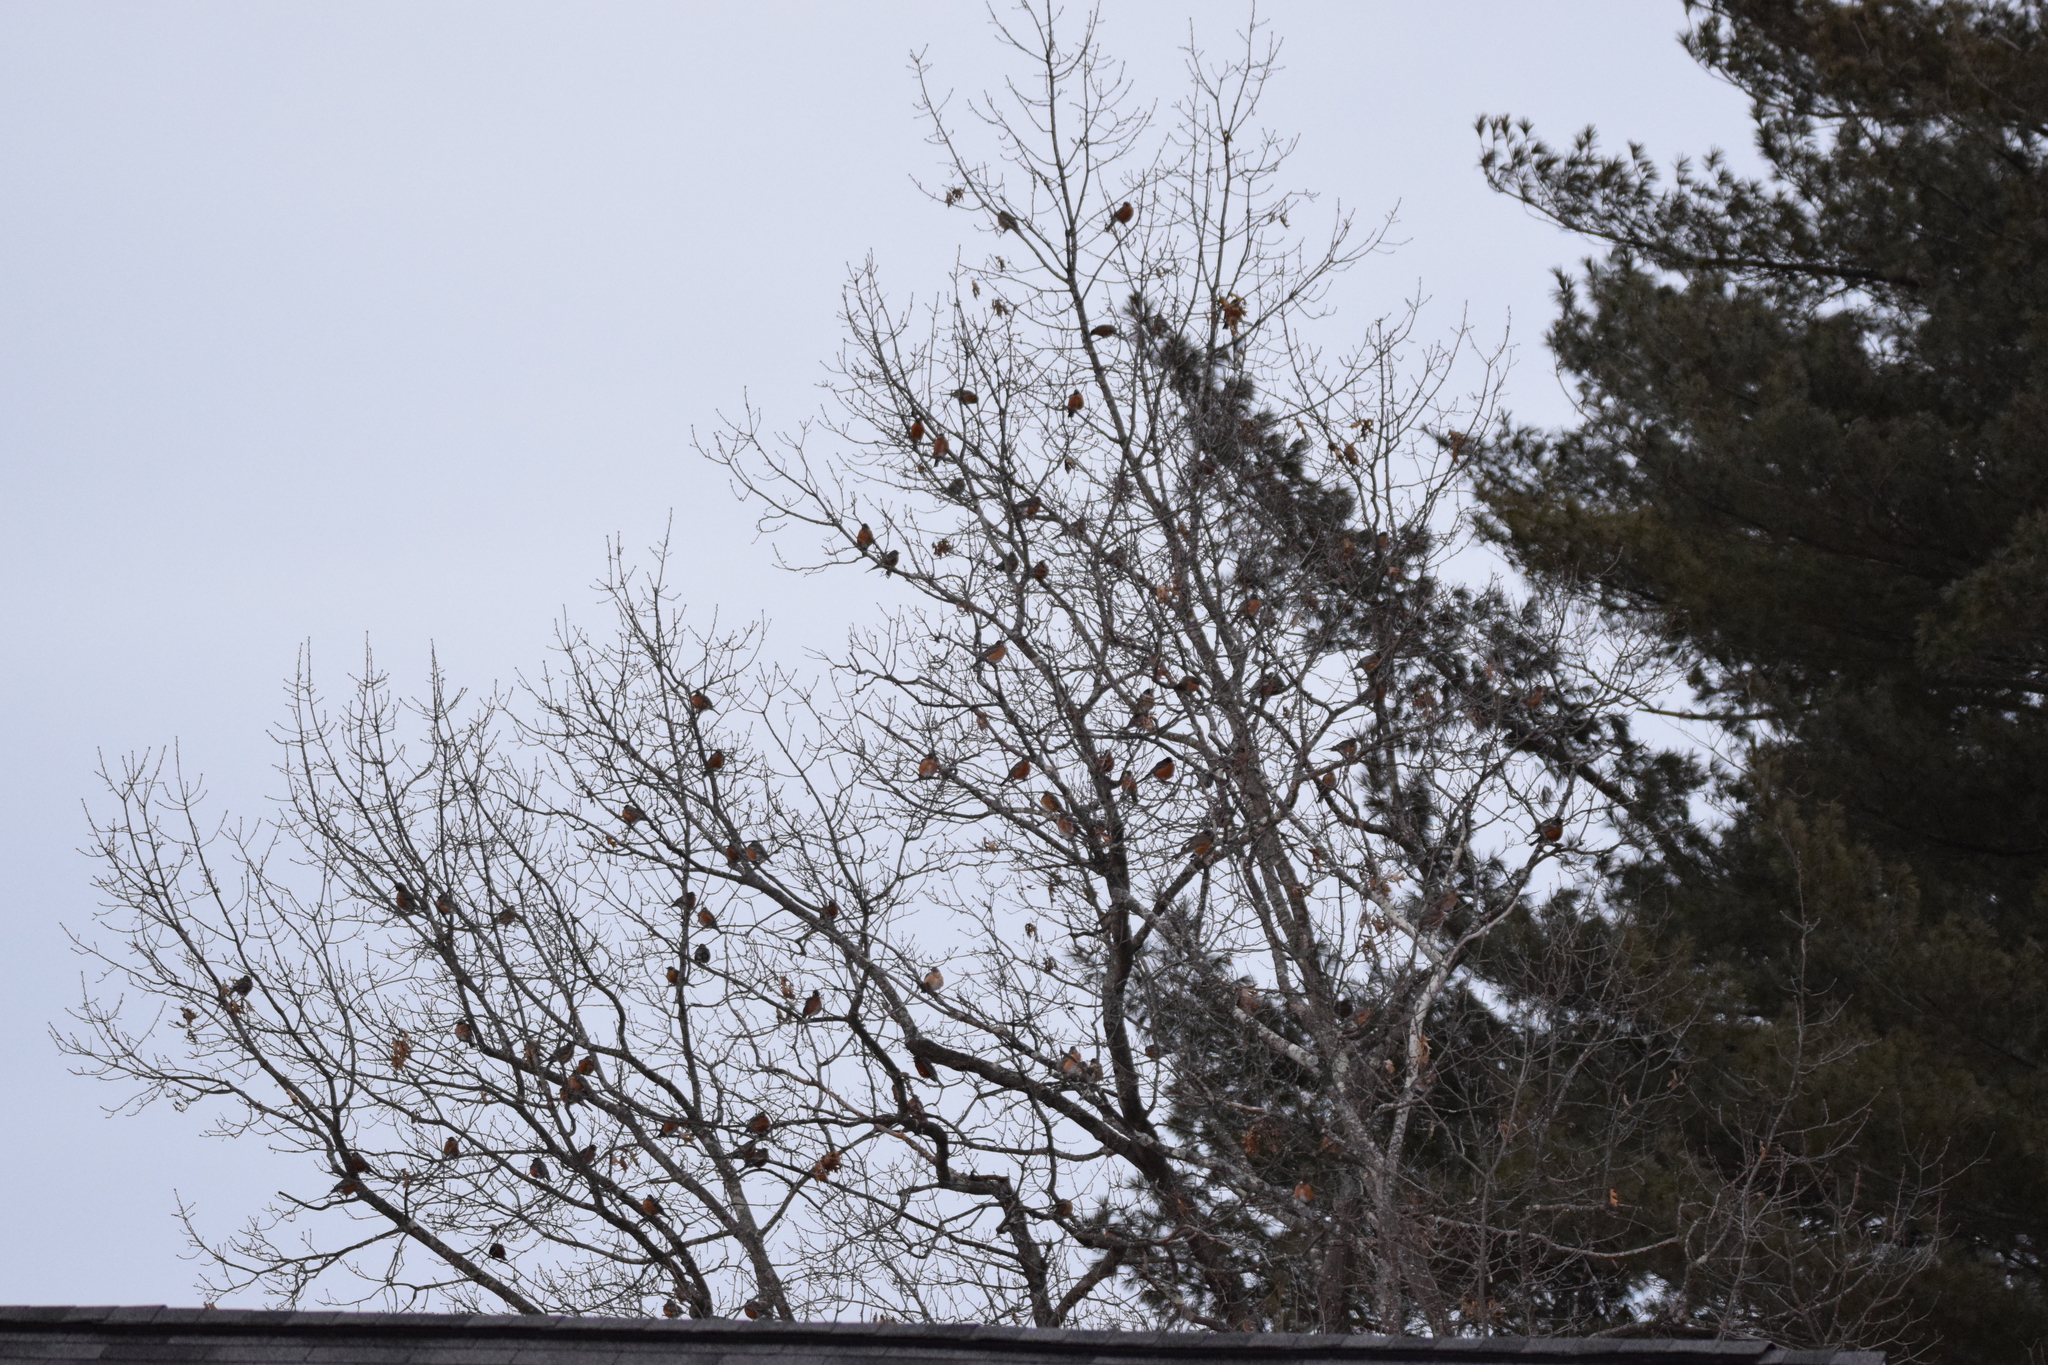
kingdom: Animalia
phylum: Chordata
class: Aves
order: Passeriformes
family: Turdidae
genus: Turdus
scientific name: Turdus migratorius
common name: American robin
